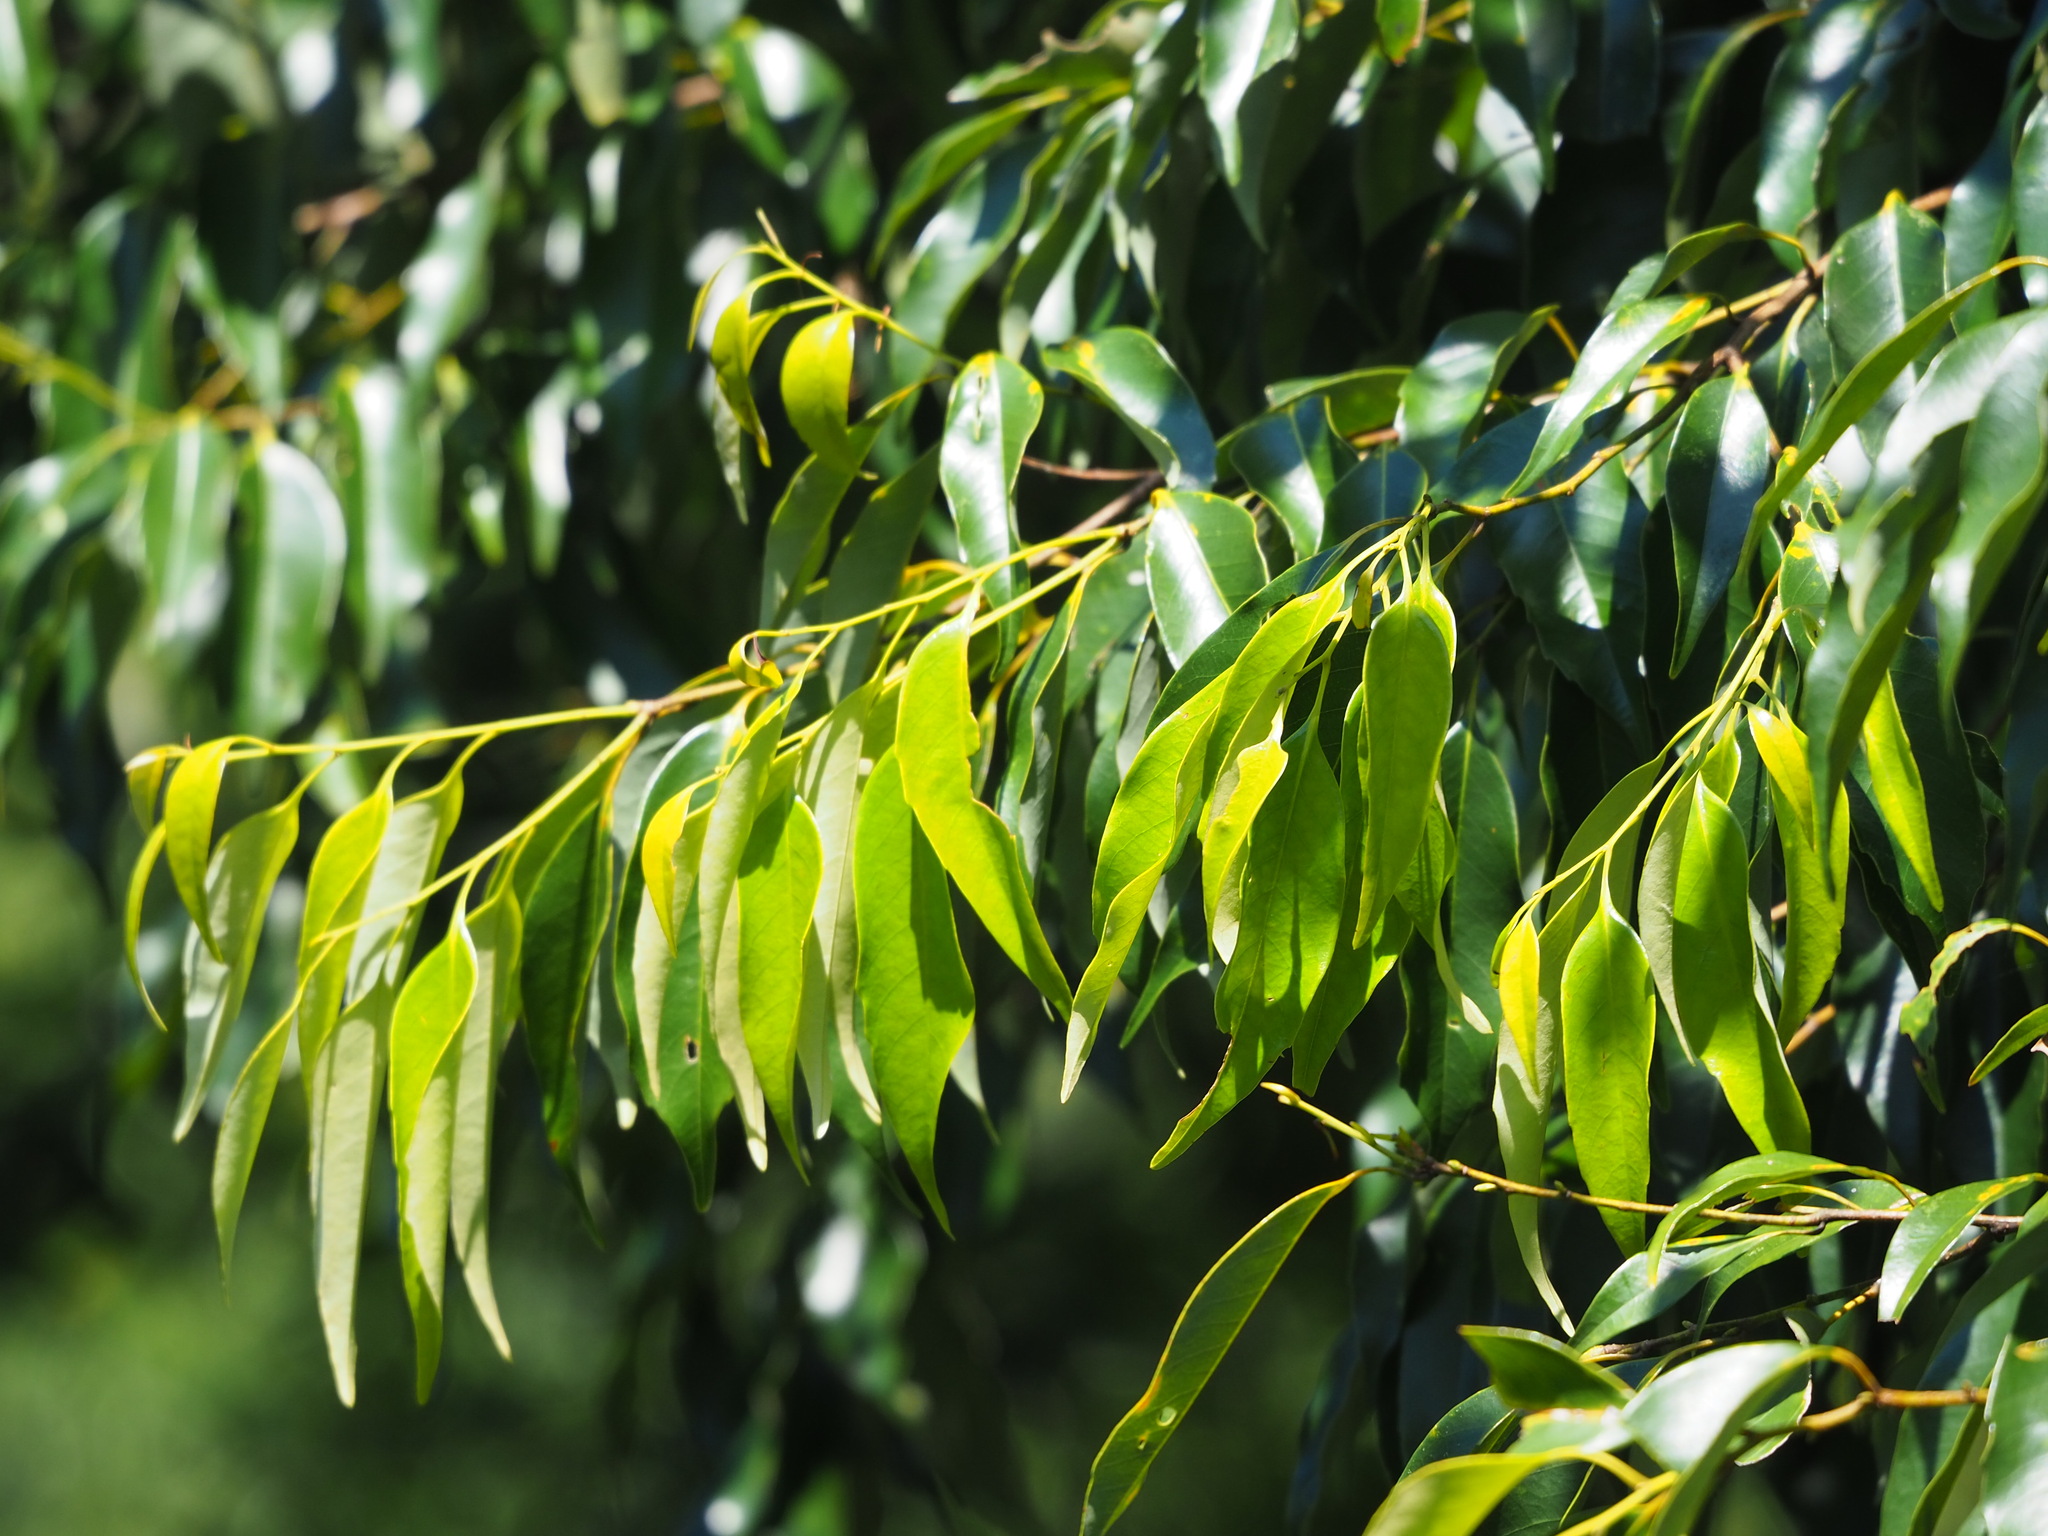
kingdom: Plantae
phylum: Tracheophyta
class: Magnoliopsida
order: Fagales
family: Fagaceae
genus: Castanopsis
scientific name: Castanopsis carlesii
